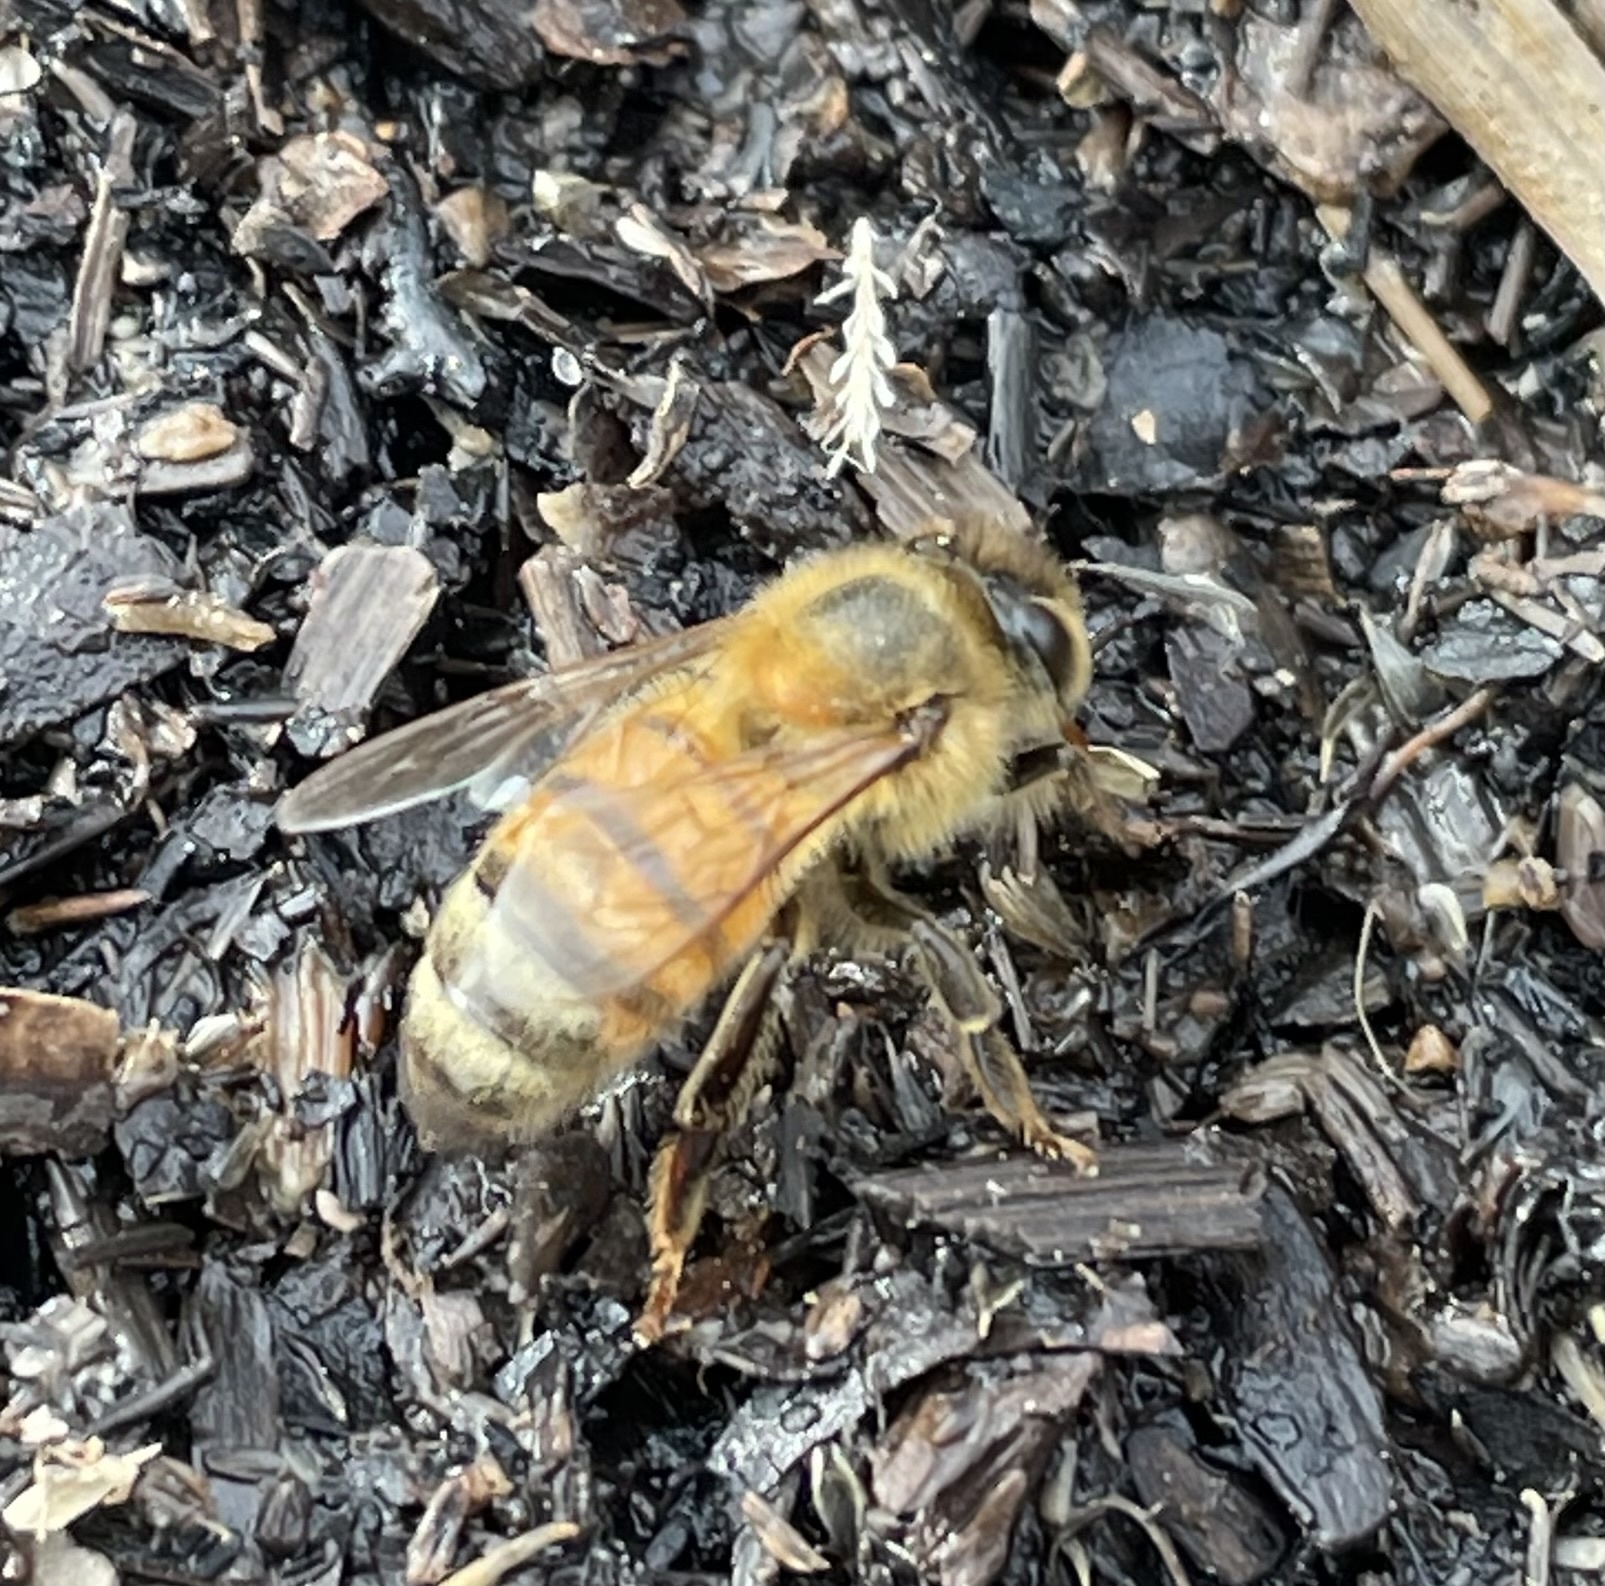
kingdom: Animalia
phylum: Arthropoda
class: Insecta
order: Hymenoptera
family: Apidae
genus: Apis
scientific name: Apis mellifera
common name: Honey bee
